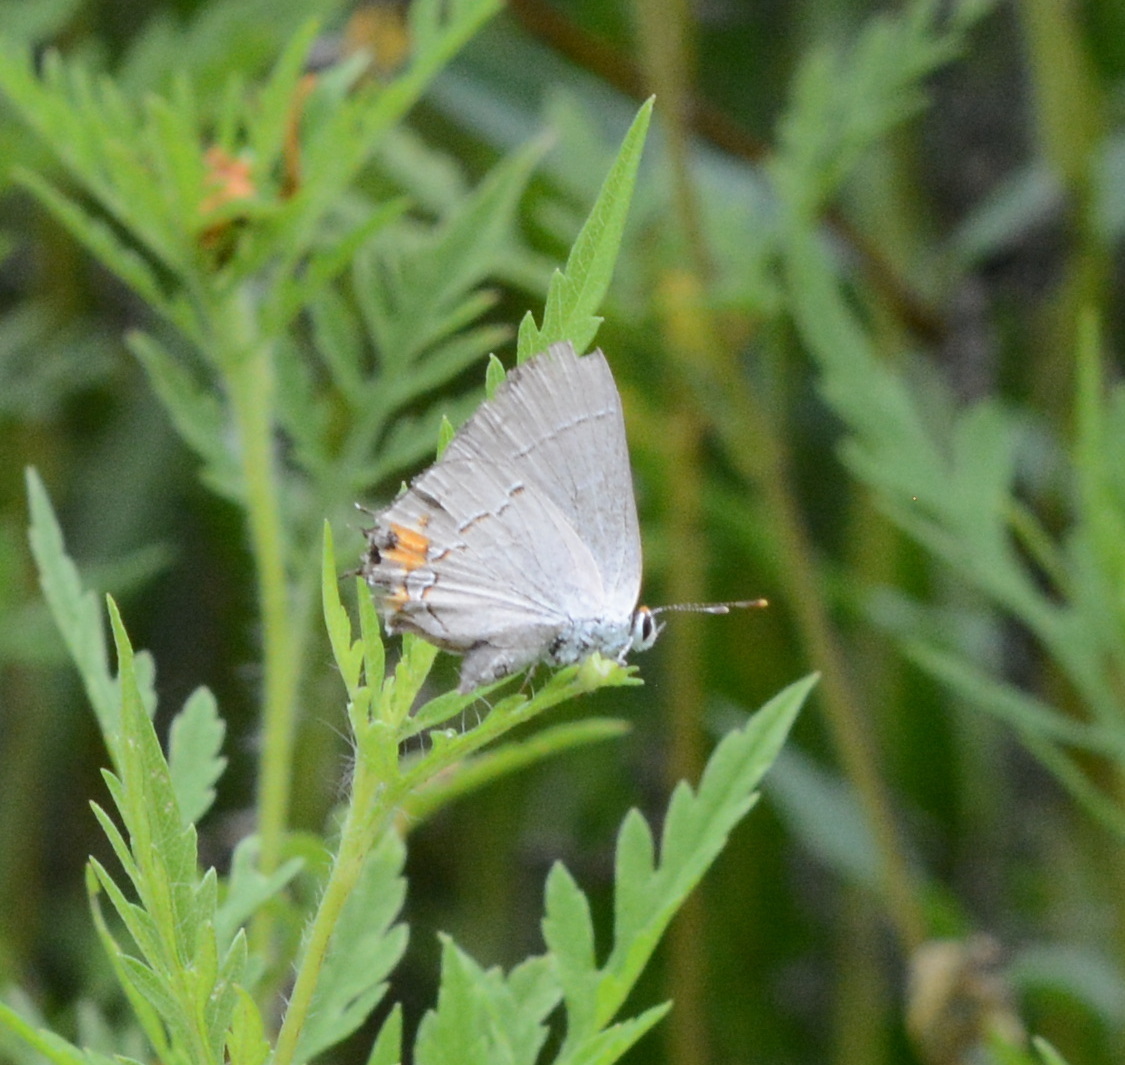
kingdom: Animalia
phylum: Arthropoda
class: Insecta
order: Lepidoptera
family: Lycaenidae
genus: Strymon
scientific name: Strymon melinus
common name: Gray hairstreak
